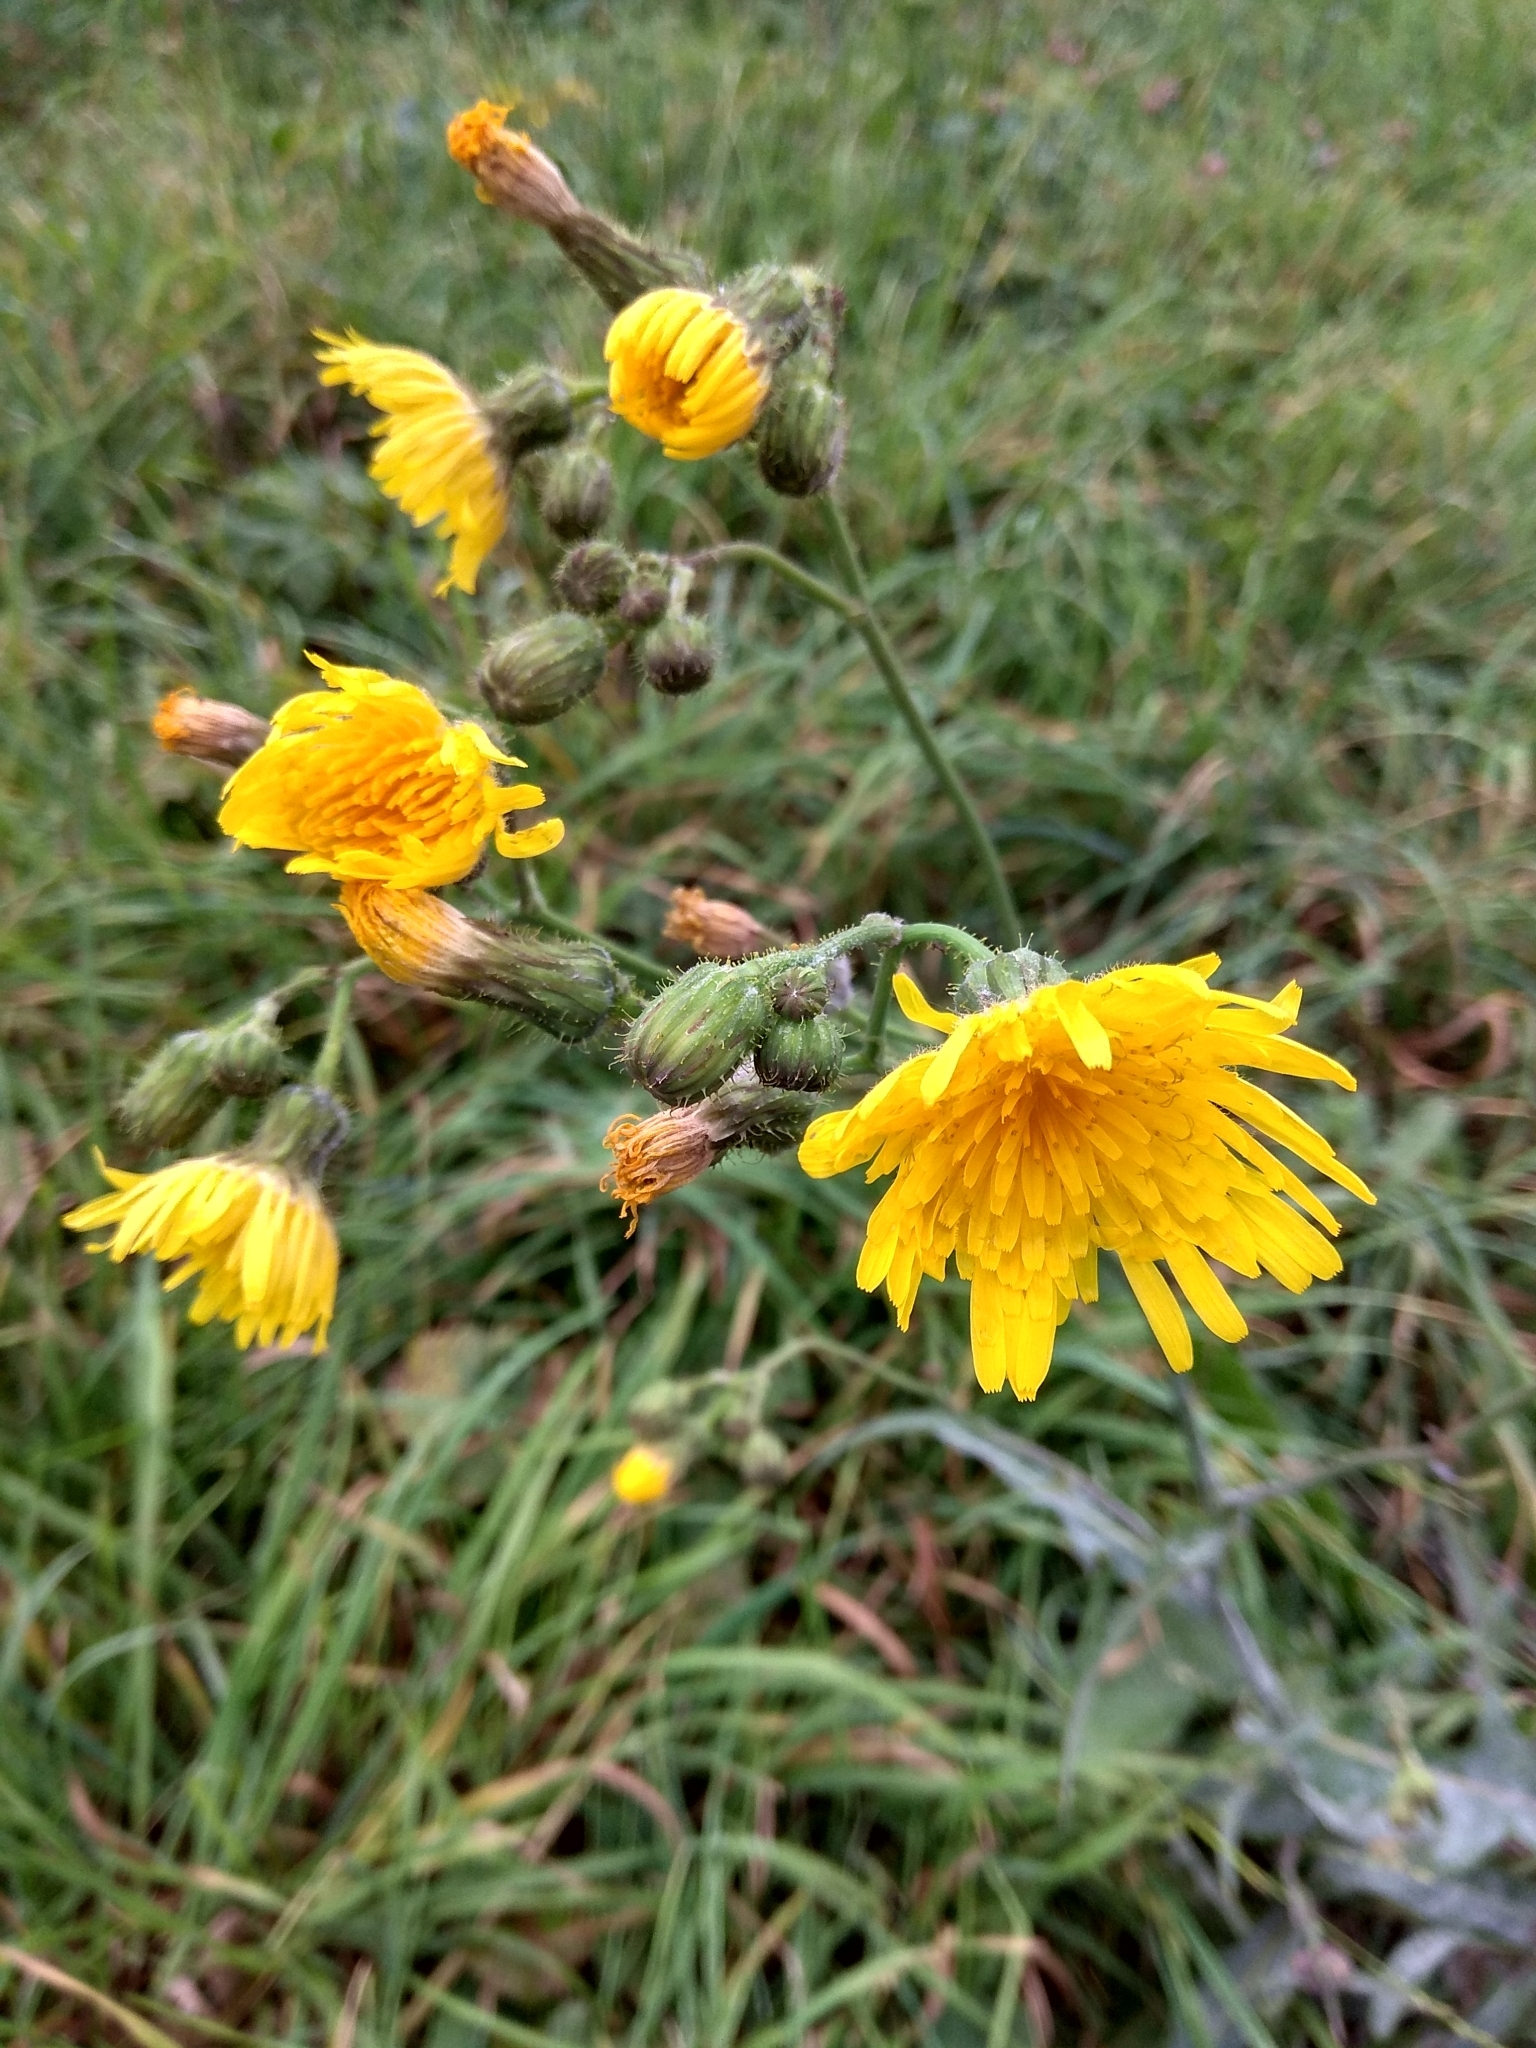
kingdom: Plantae
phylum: Tracheophyta
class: Magnoliopsida
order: Asterales
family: Asteraceae
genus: Sonchus
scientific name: Sonchus arvensis
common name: Perennial sow-thistle
